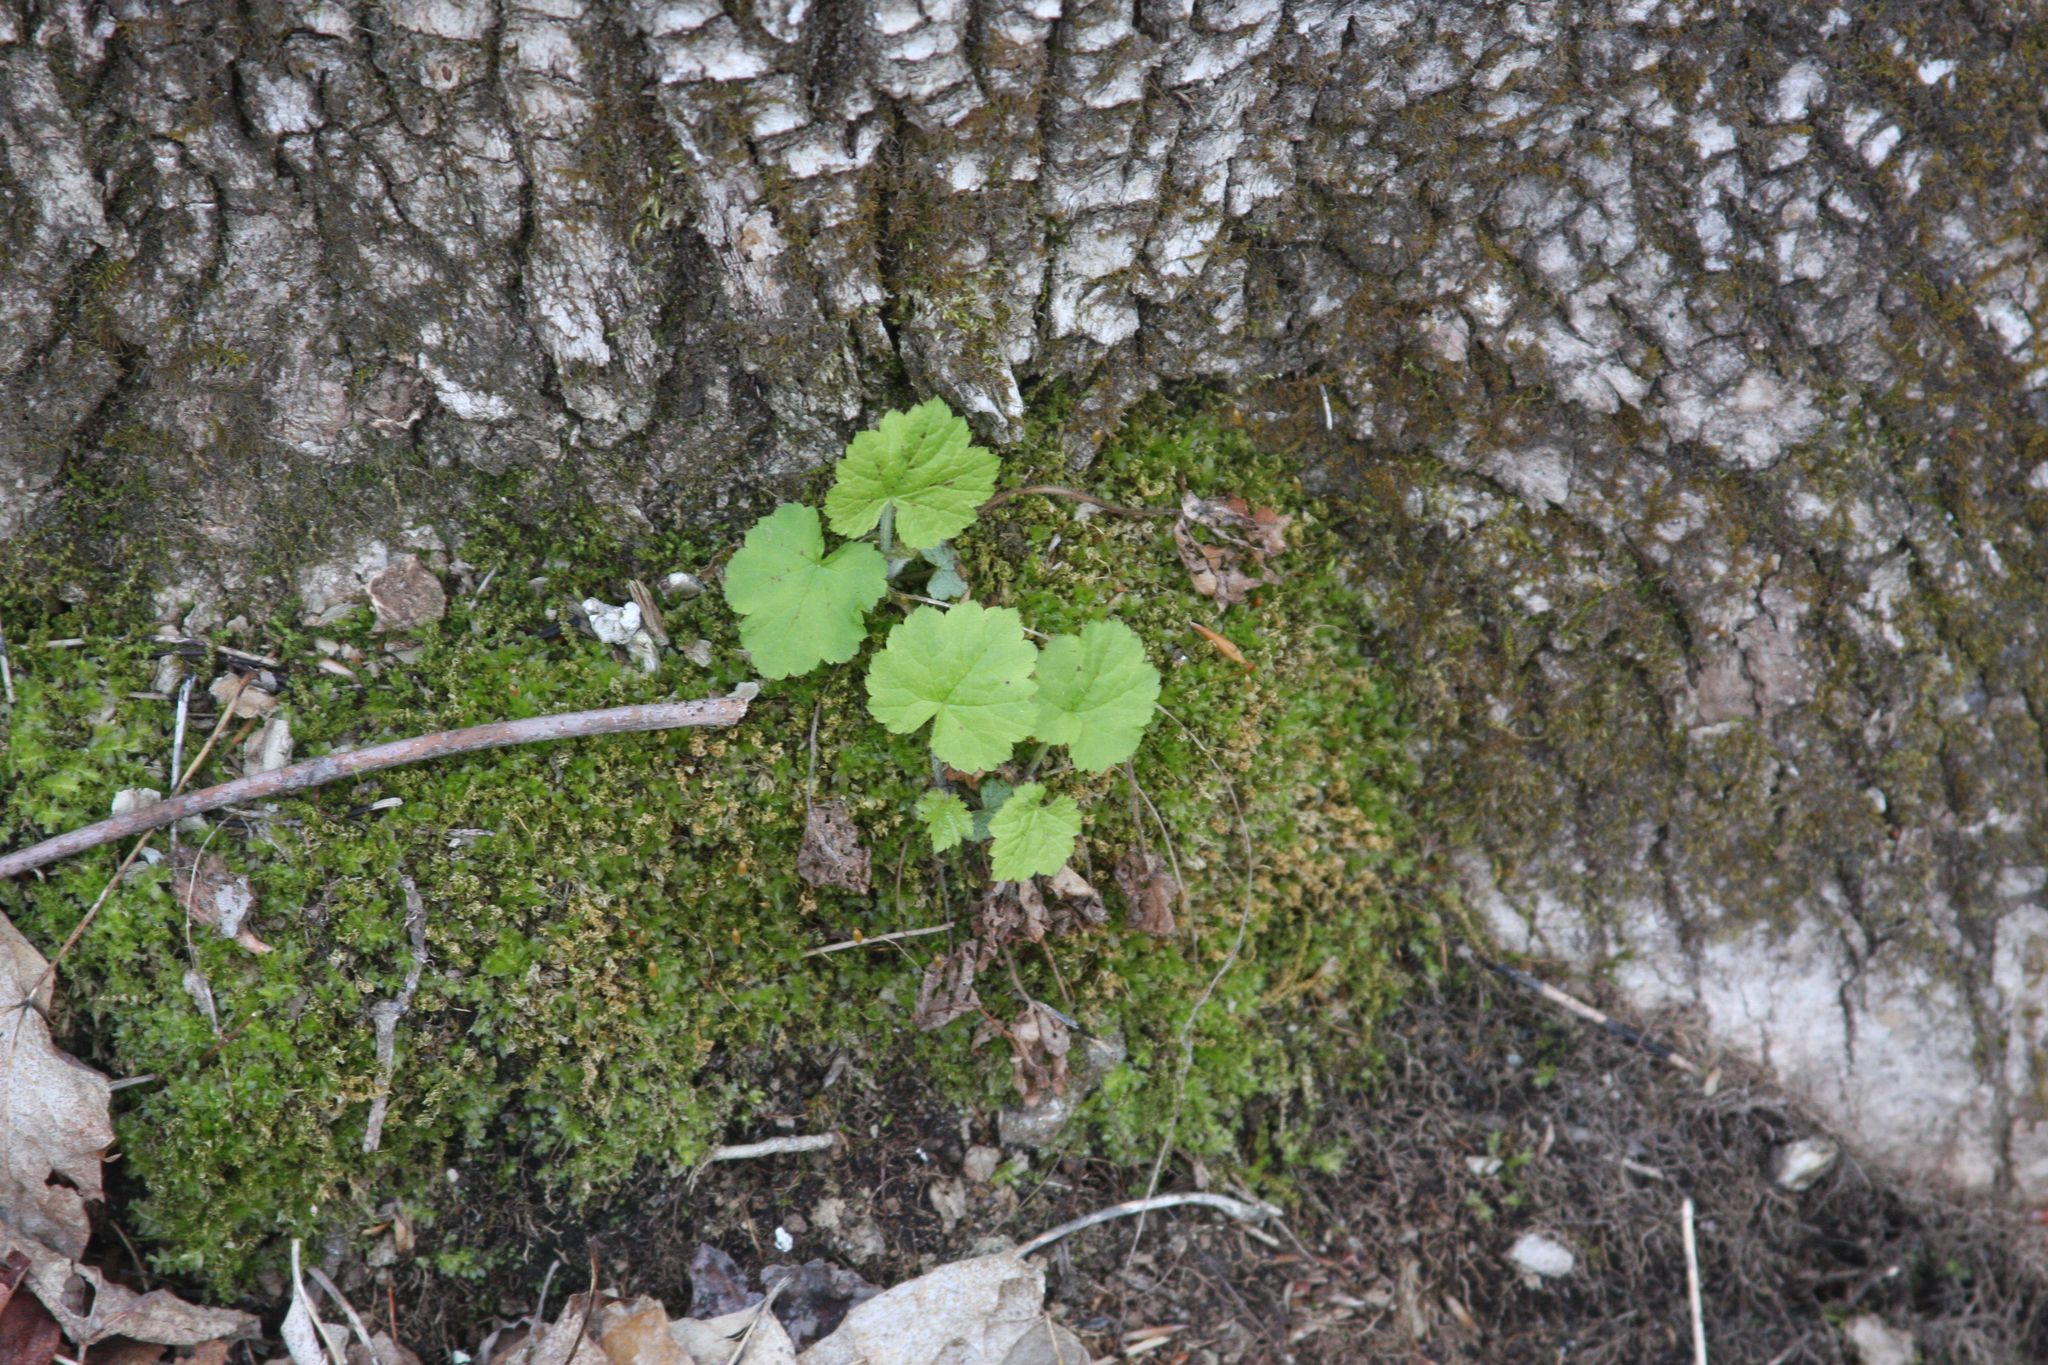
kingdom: Plantae
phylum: Tracheophyta
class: Magnoliopsida
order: Saxifragales
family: Saxifragaceae
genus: Tiarella
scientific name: Tiarella stolonifera
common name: Stoloniferous foamflower
